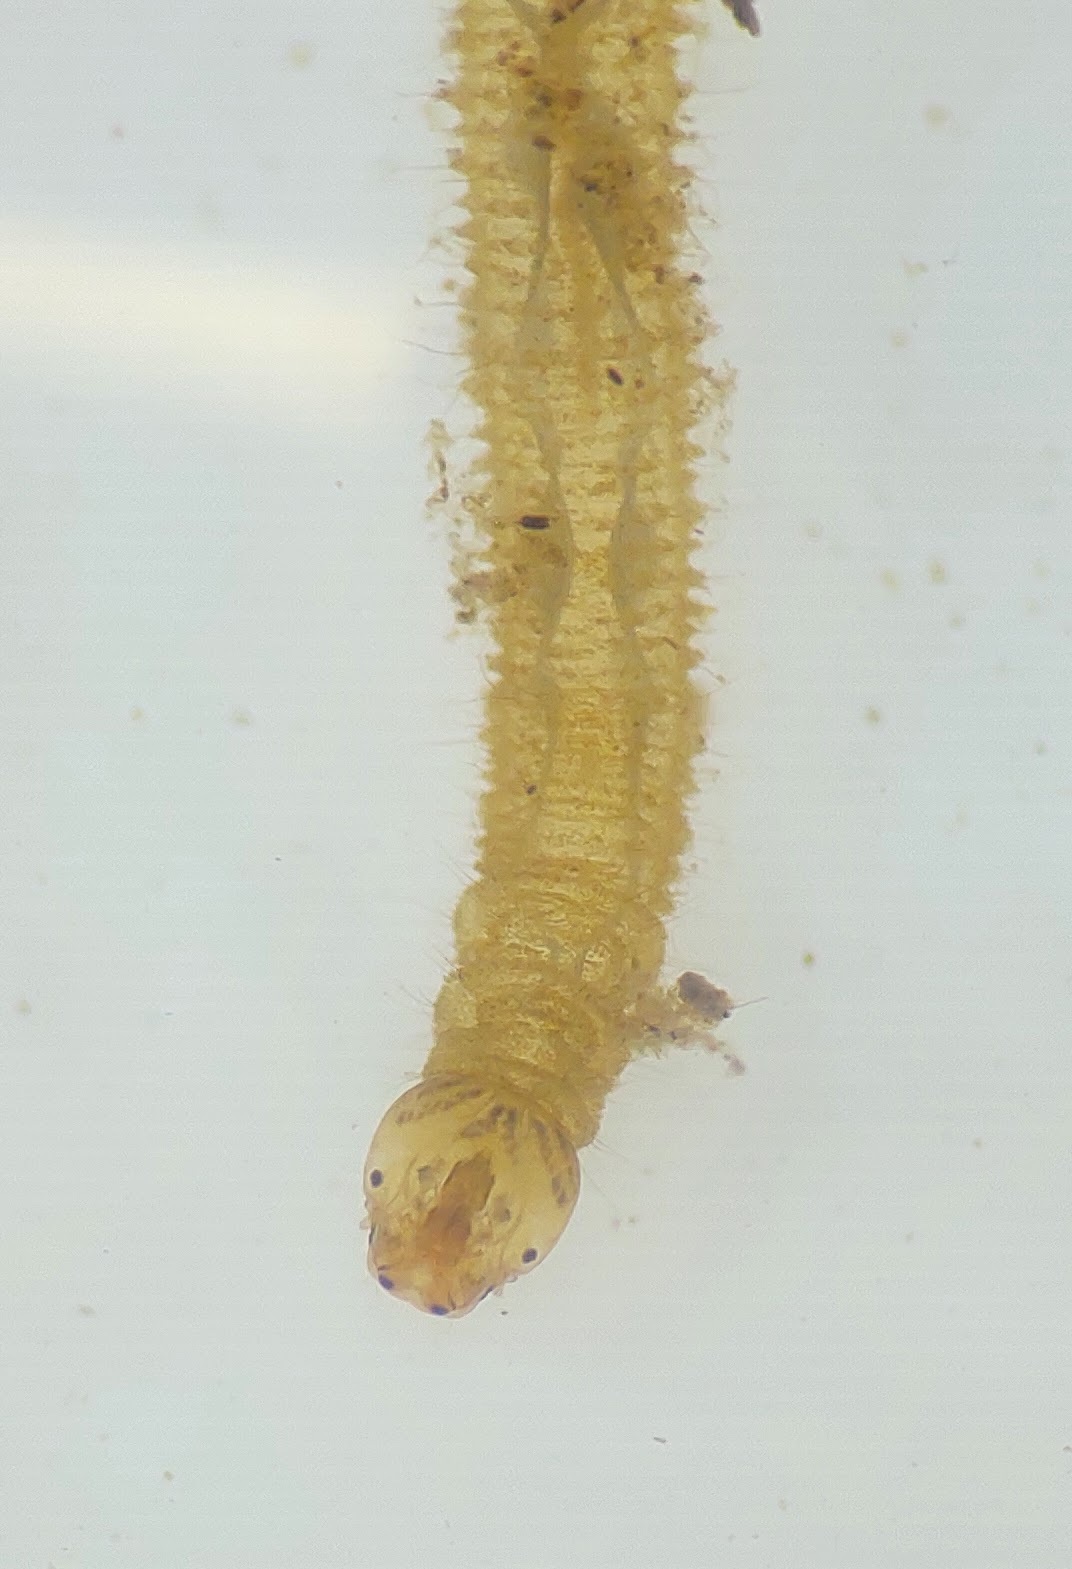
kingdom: Animalia
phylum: Arthropoda
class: Insecta
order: Diptera
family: Ptychopteridae
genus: Bittacomorpha
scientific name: Bittacomorpha clavipes
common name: Eastern phantom crane fly
